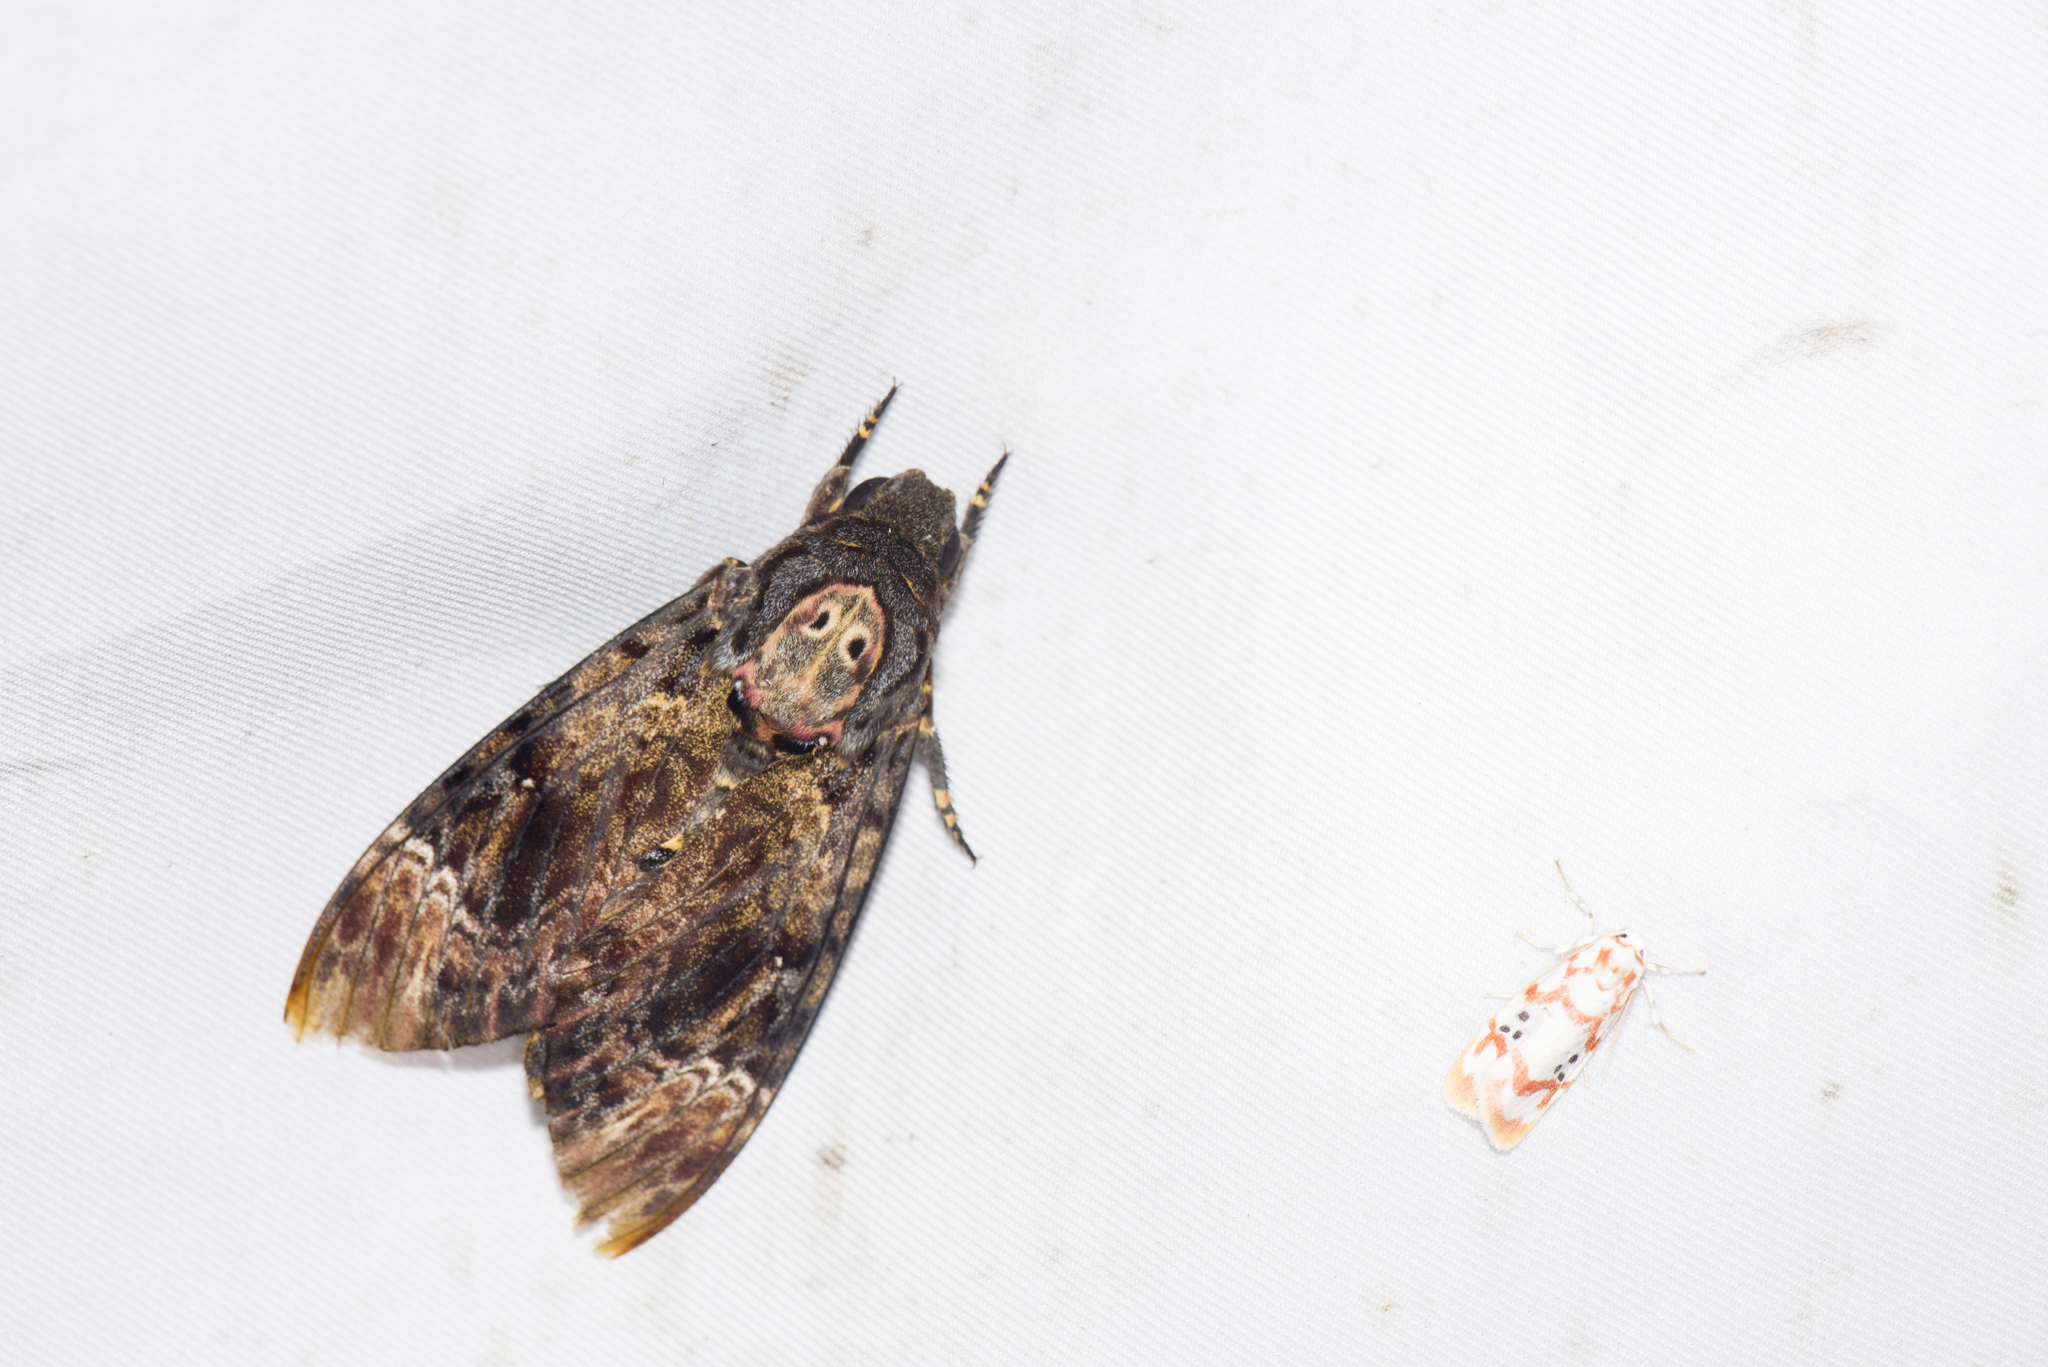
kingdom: Animalia
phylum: Arthropoda
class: Insecta
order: Lepidoptera
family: Sphingidae
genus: Acherontia
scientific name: Acherontia lachesis
